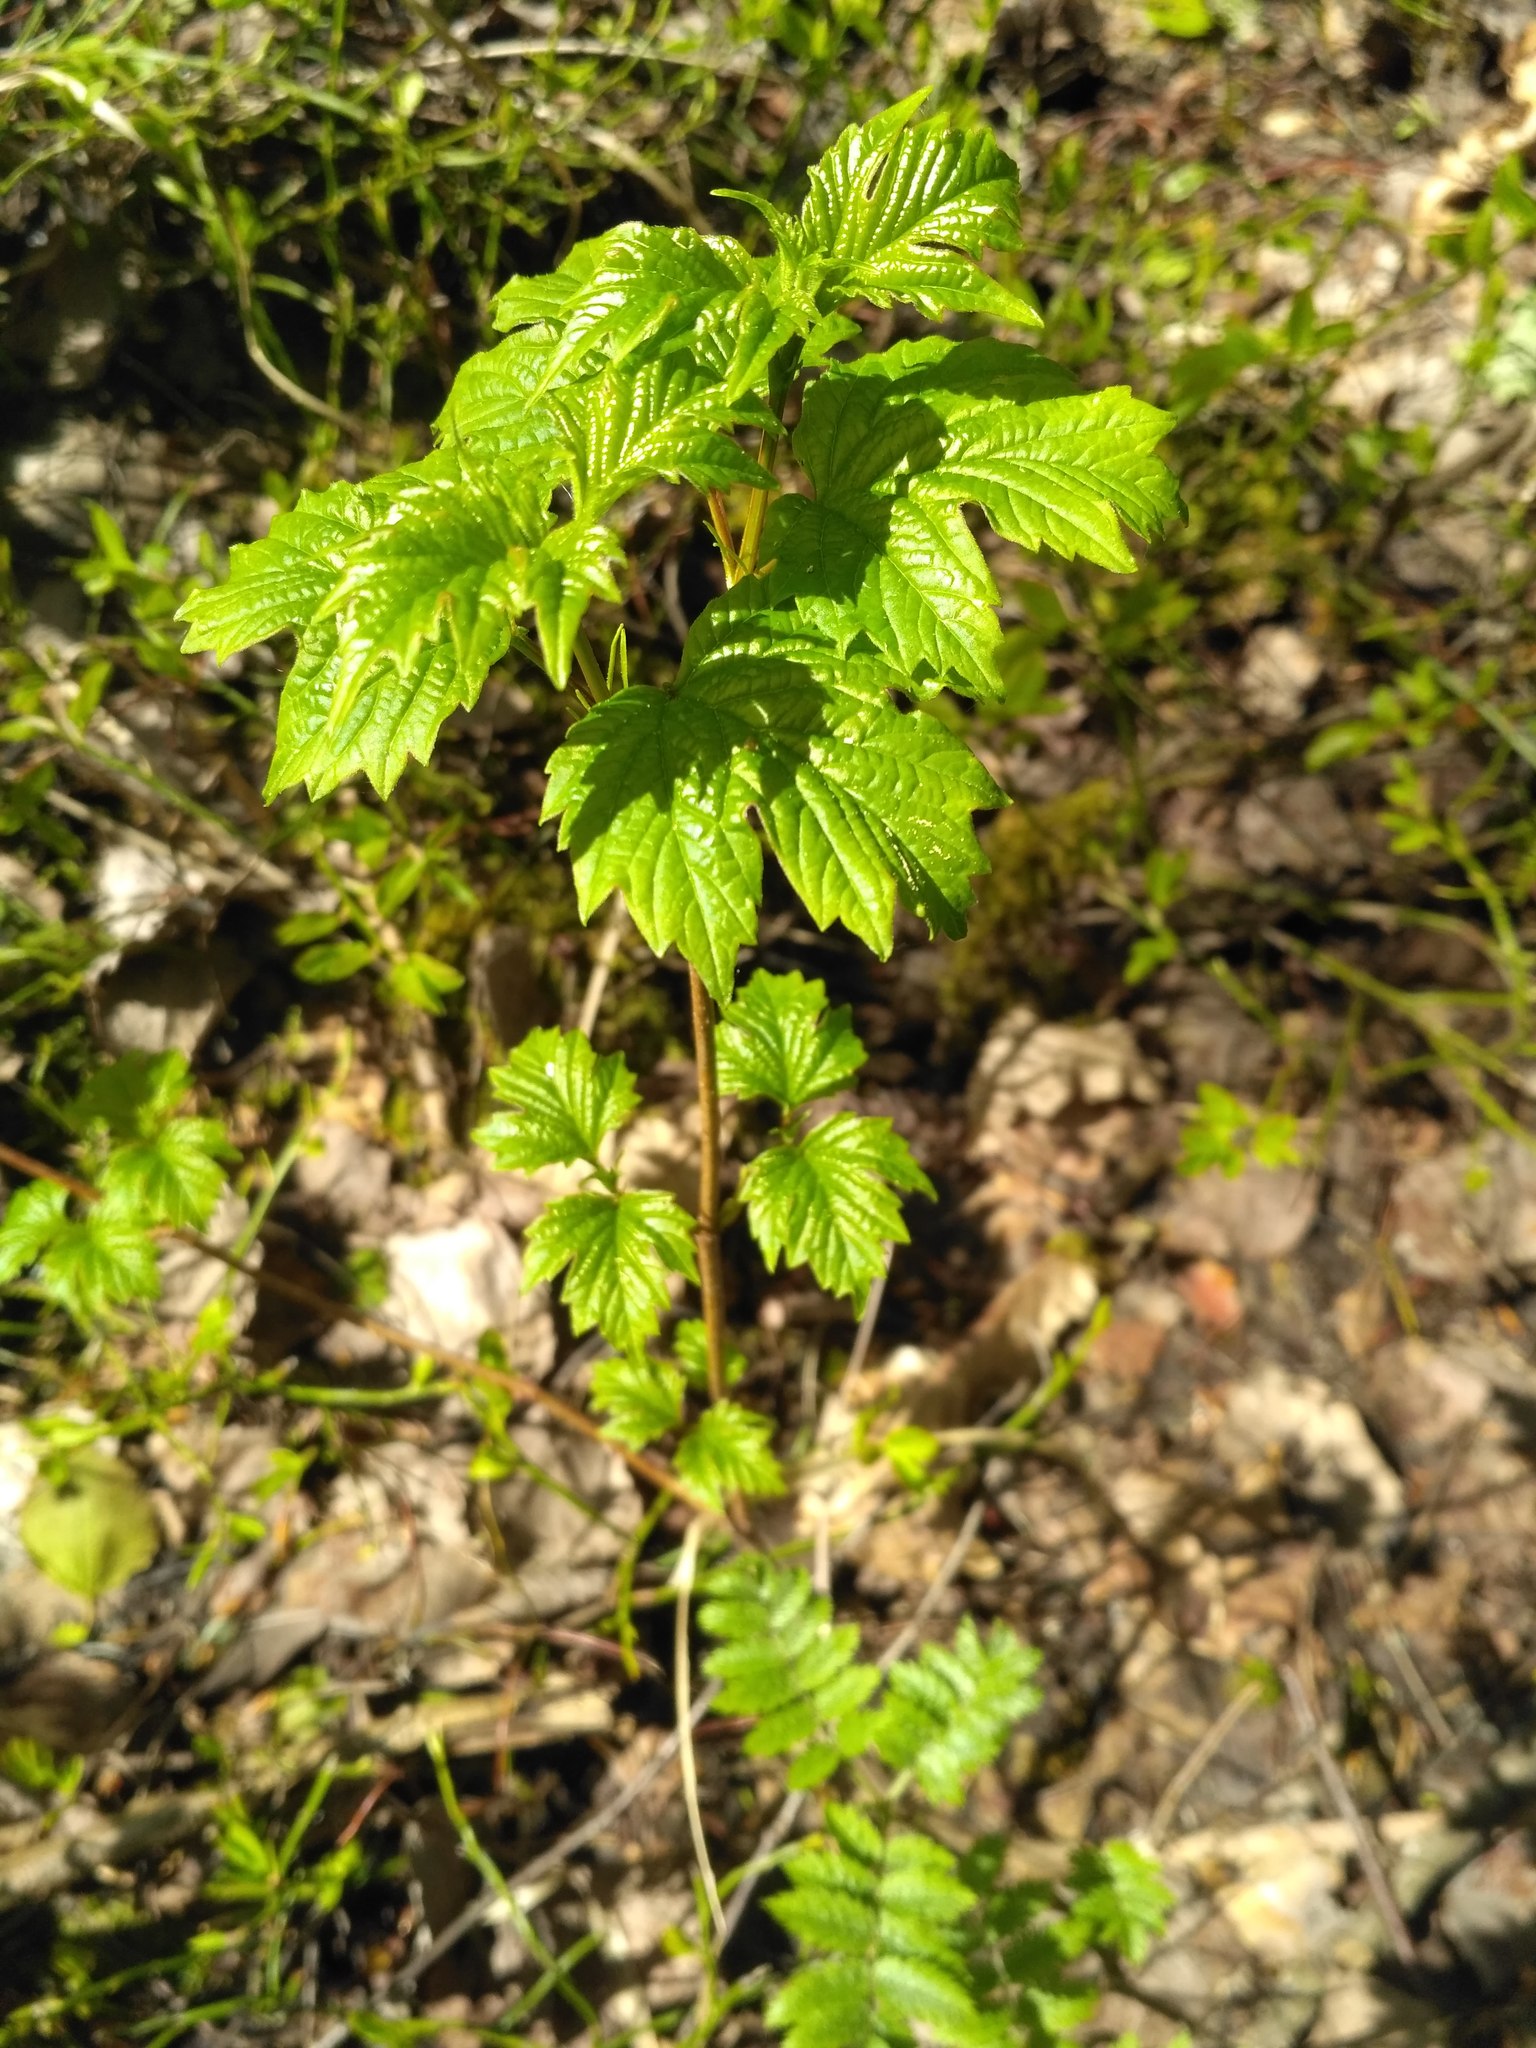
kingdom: Plantae
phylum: Tracheophyta
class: Magnoliopsida
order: Dipsacales
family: Viburnaceae
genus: Viburnum
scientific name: Viburnum opulus
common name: Guelder-rose
